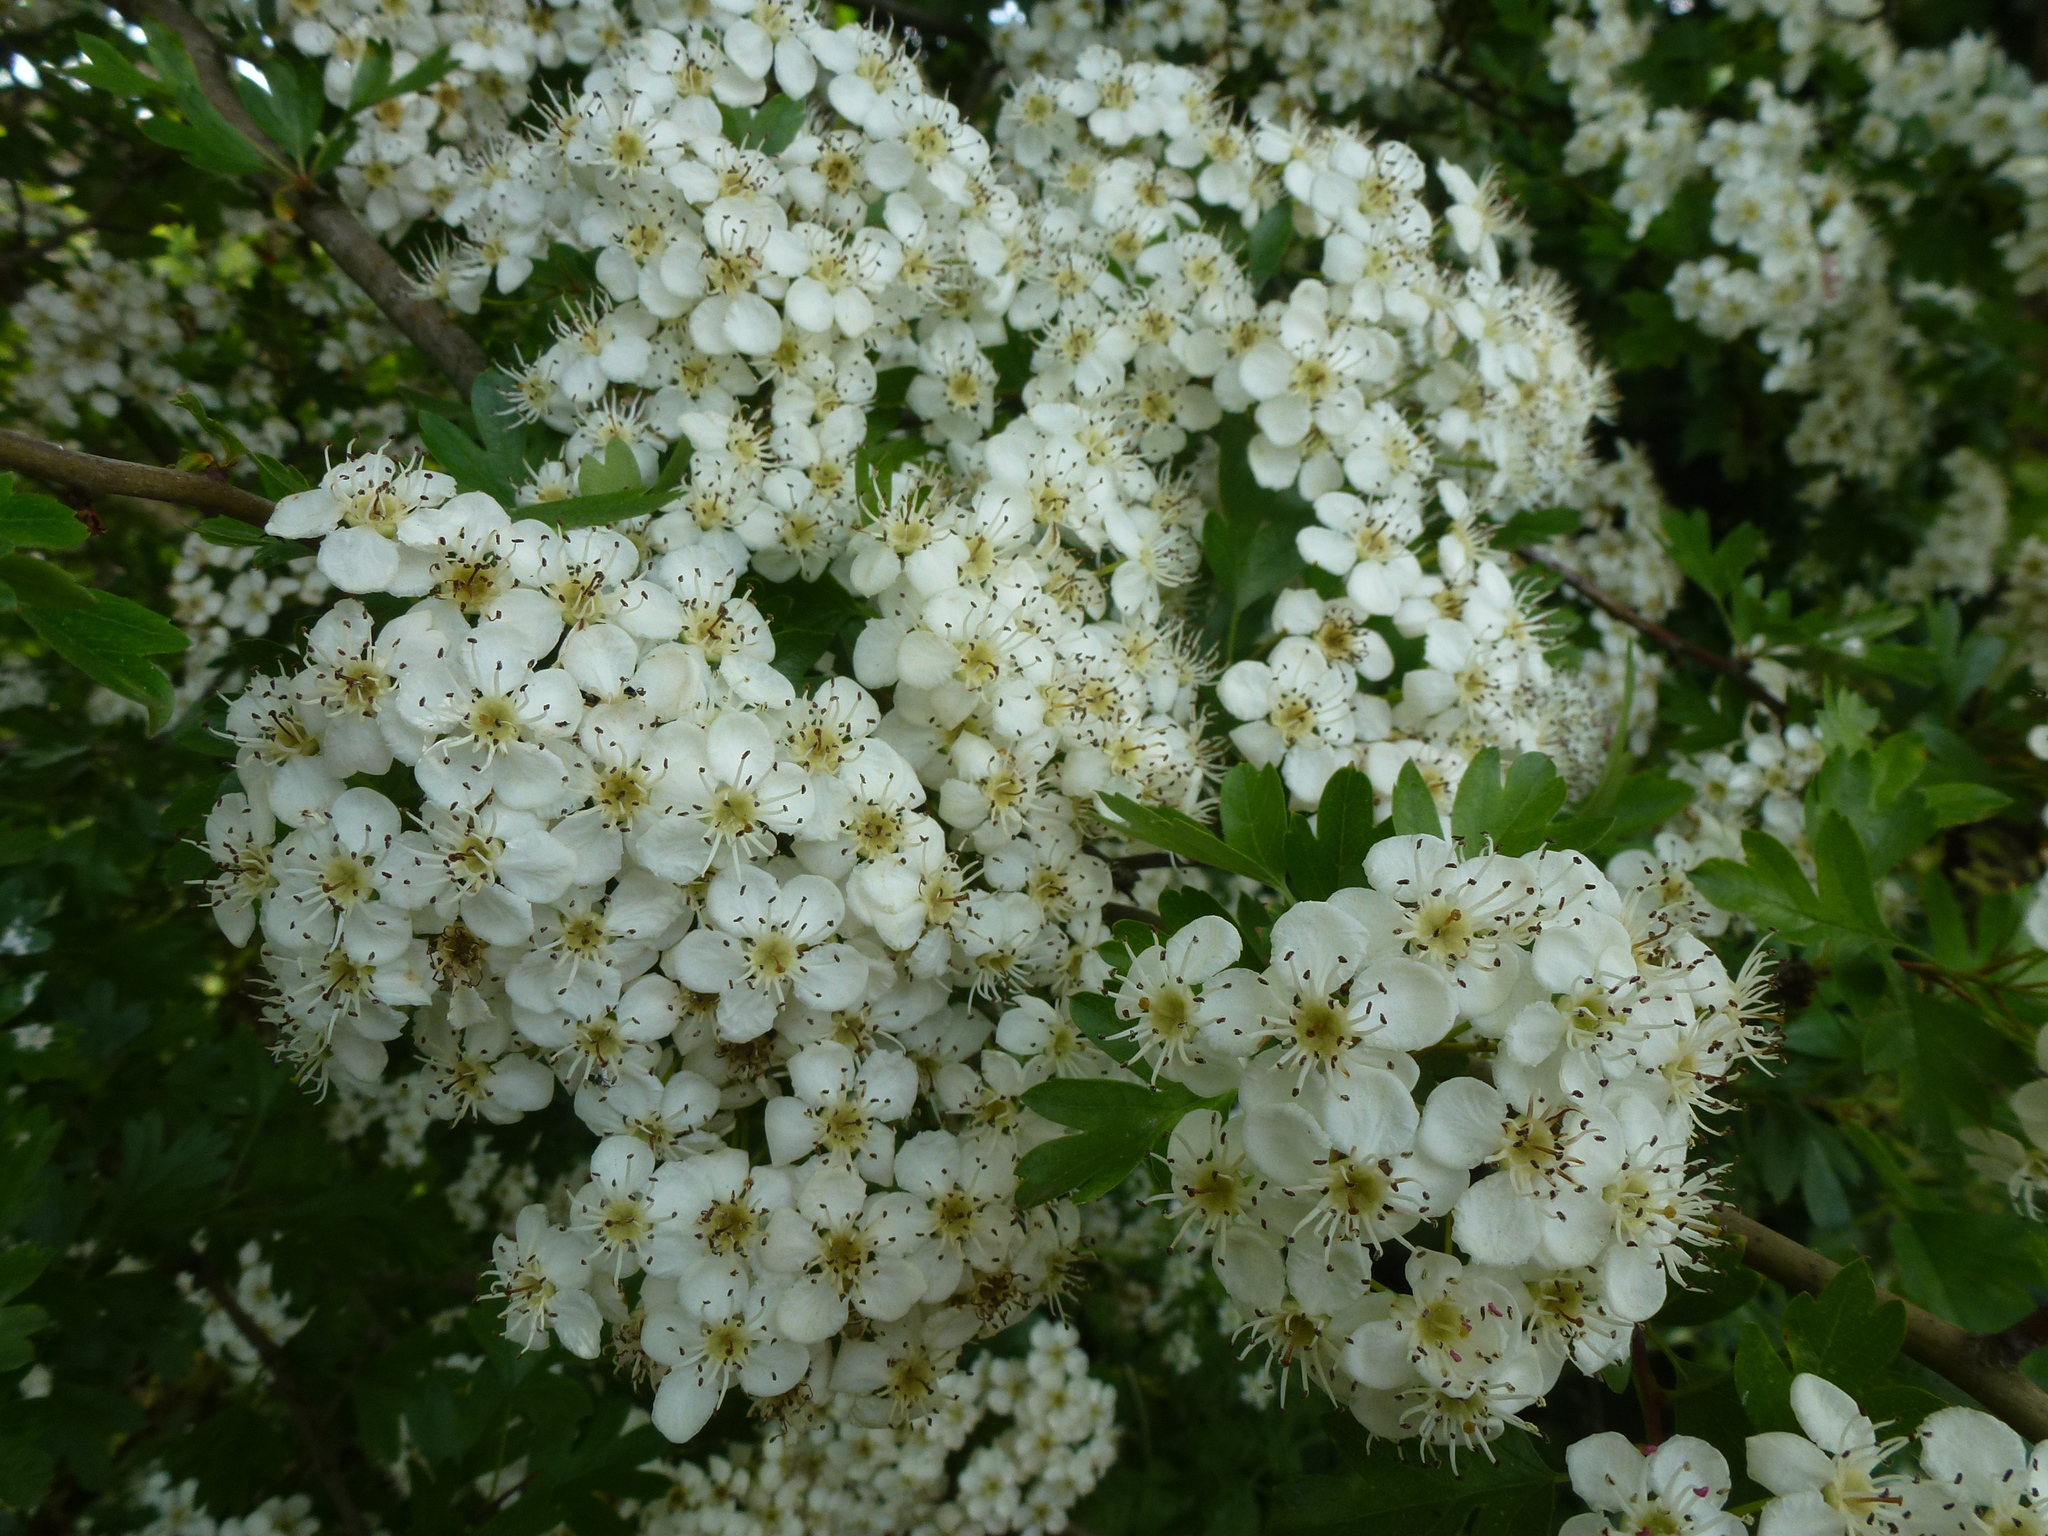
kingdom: Plantae
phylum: Tracheophyta
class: Magnoliopsida
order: Rosales
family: Rosaceae
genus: Crataegus
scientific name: Crataegus monogyna
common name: Hawthorn
